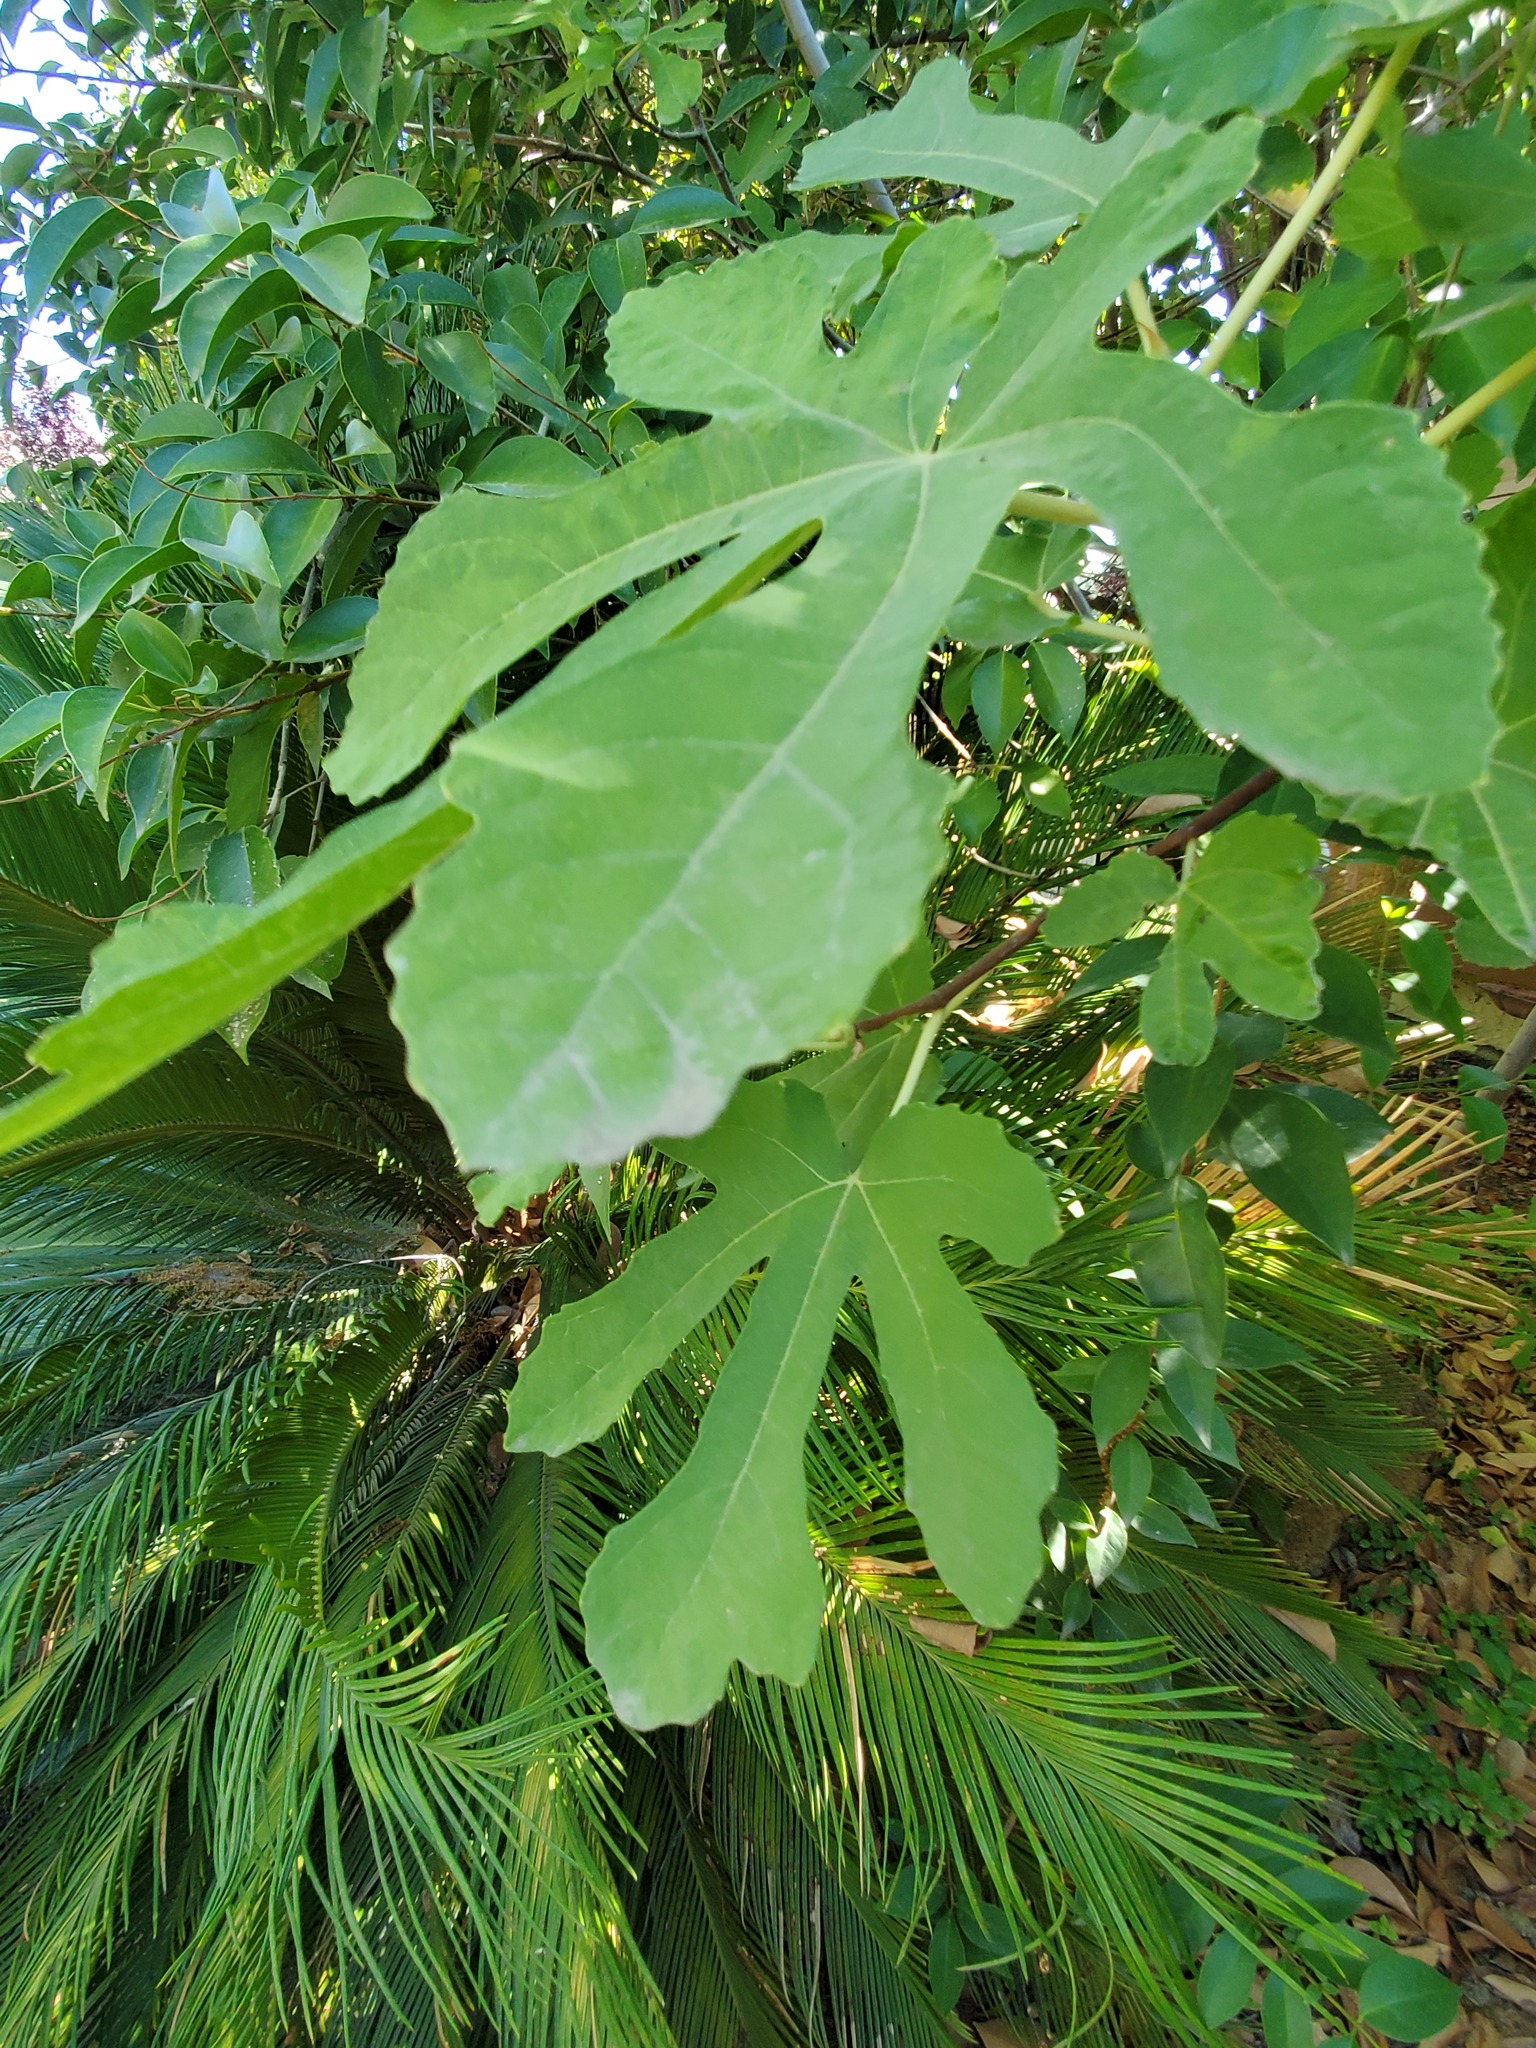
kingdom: Plantae
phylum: Tracheophyta
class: Magnoliopsida
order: Rosales
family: Moraceae
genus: Ficus
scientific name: Ficus carica
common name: Fig
